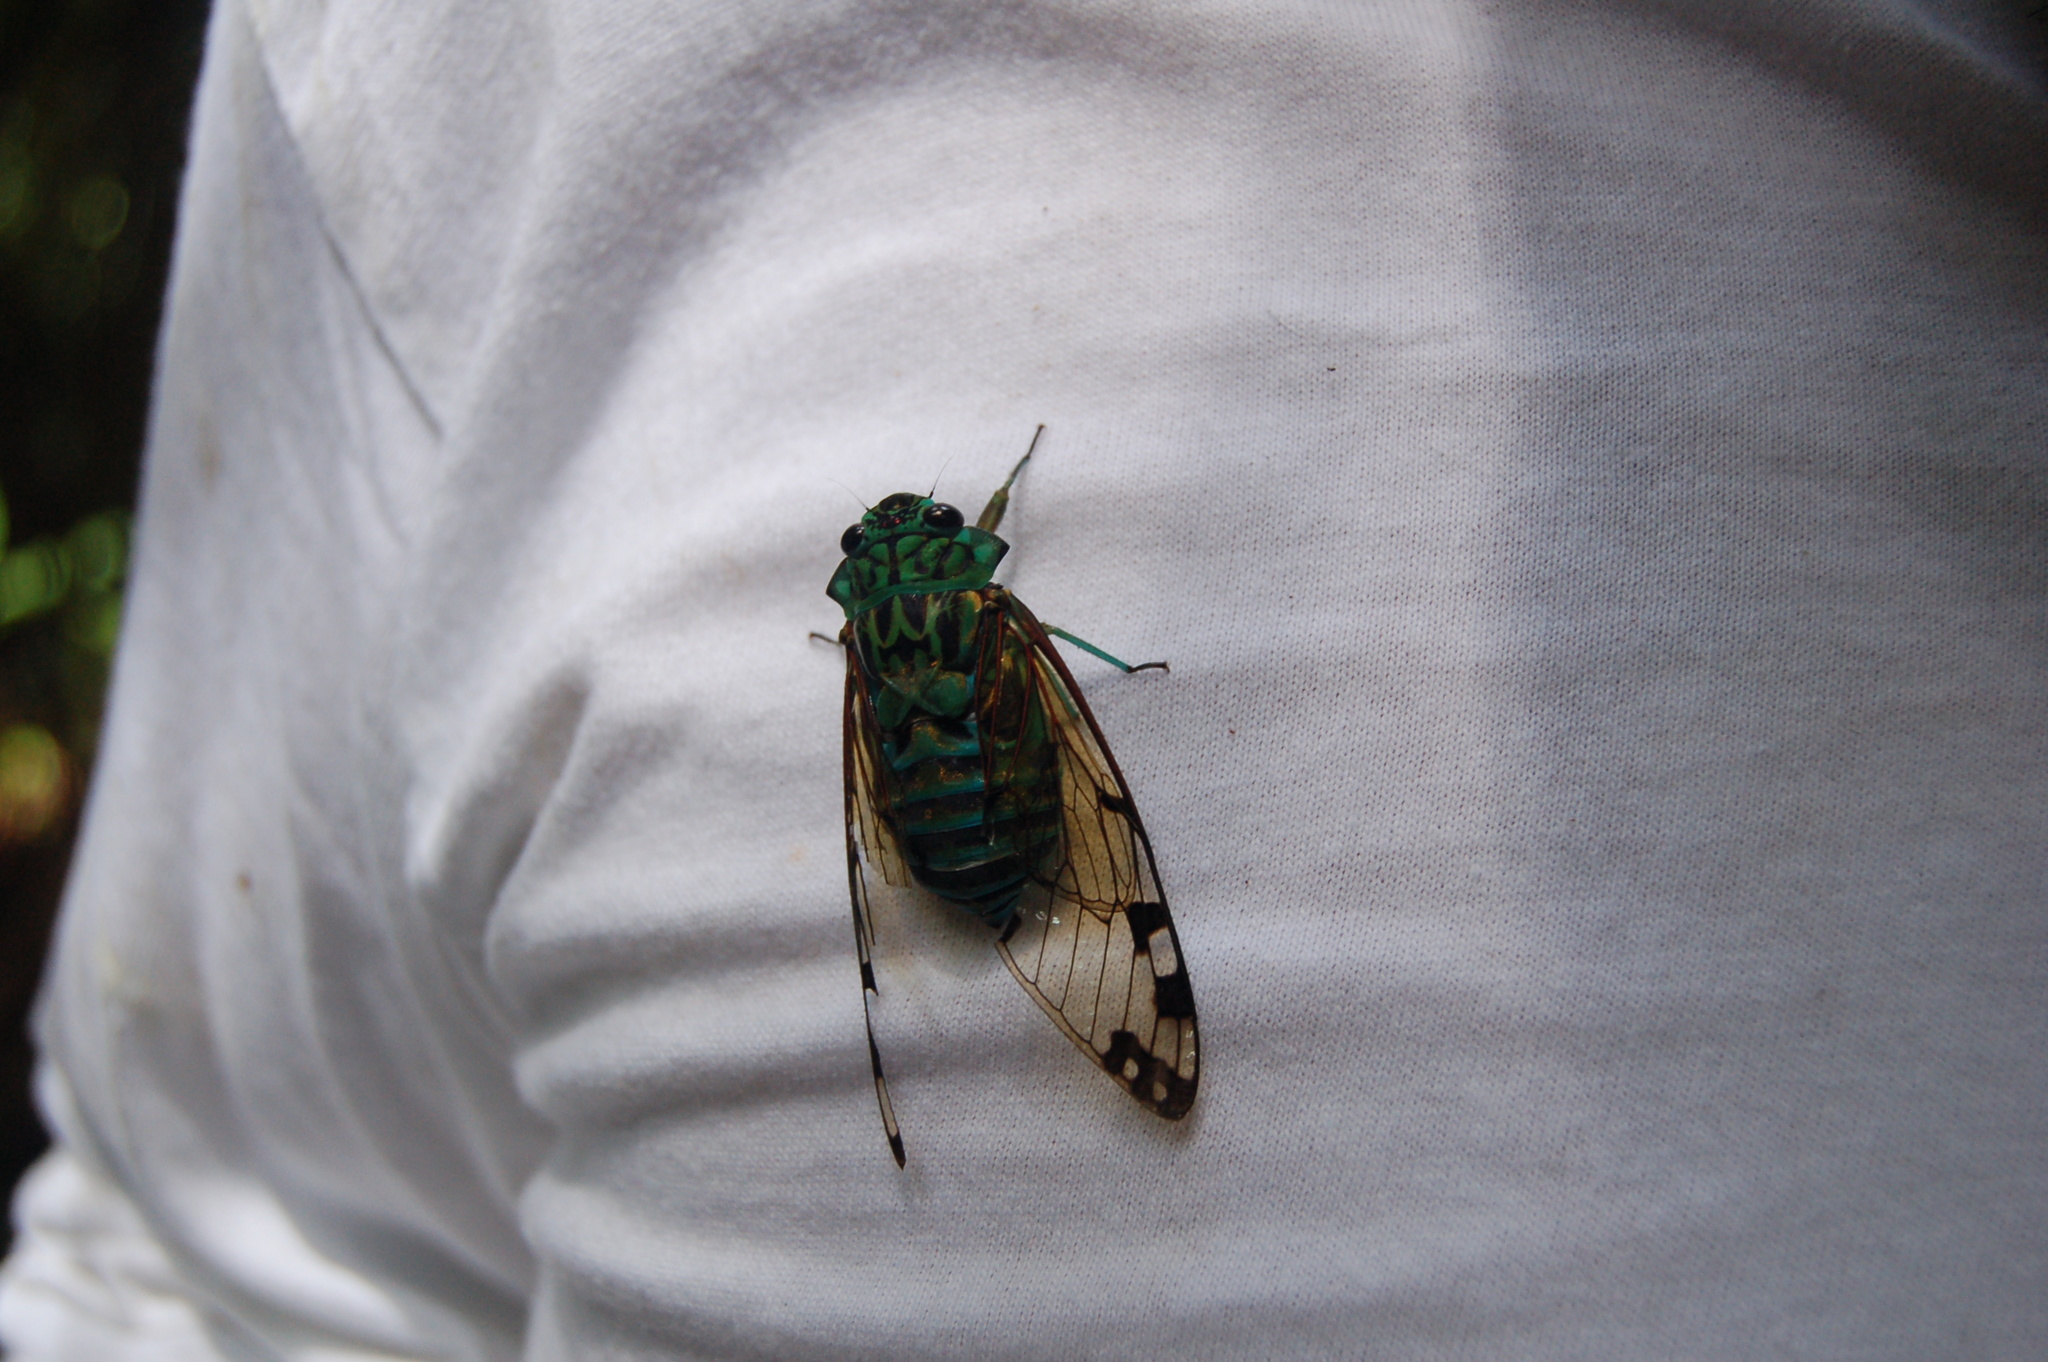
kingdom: Animalia
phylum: Arthropoda
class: Insecta
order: Hemiptera
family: Cicadidae
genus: Zammara
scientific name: Zammara smaragdina
